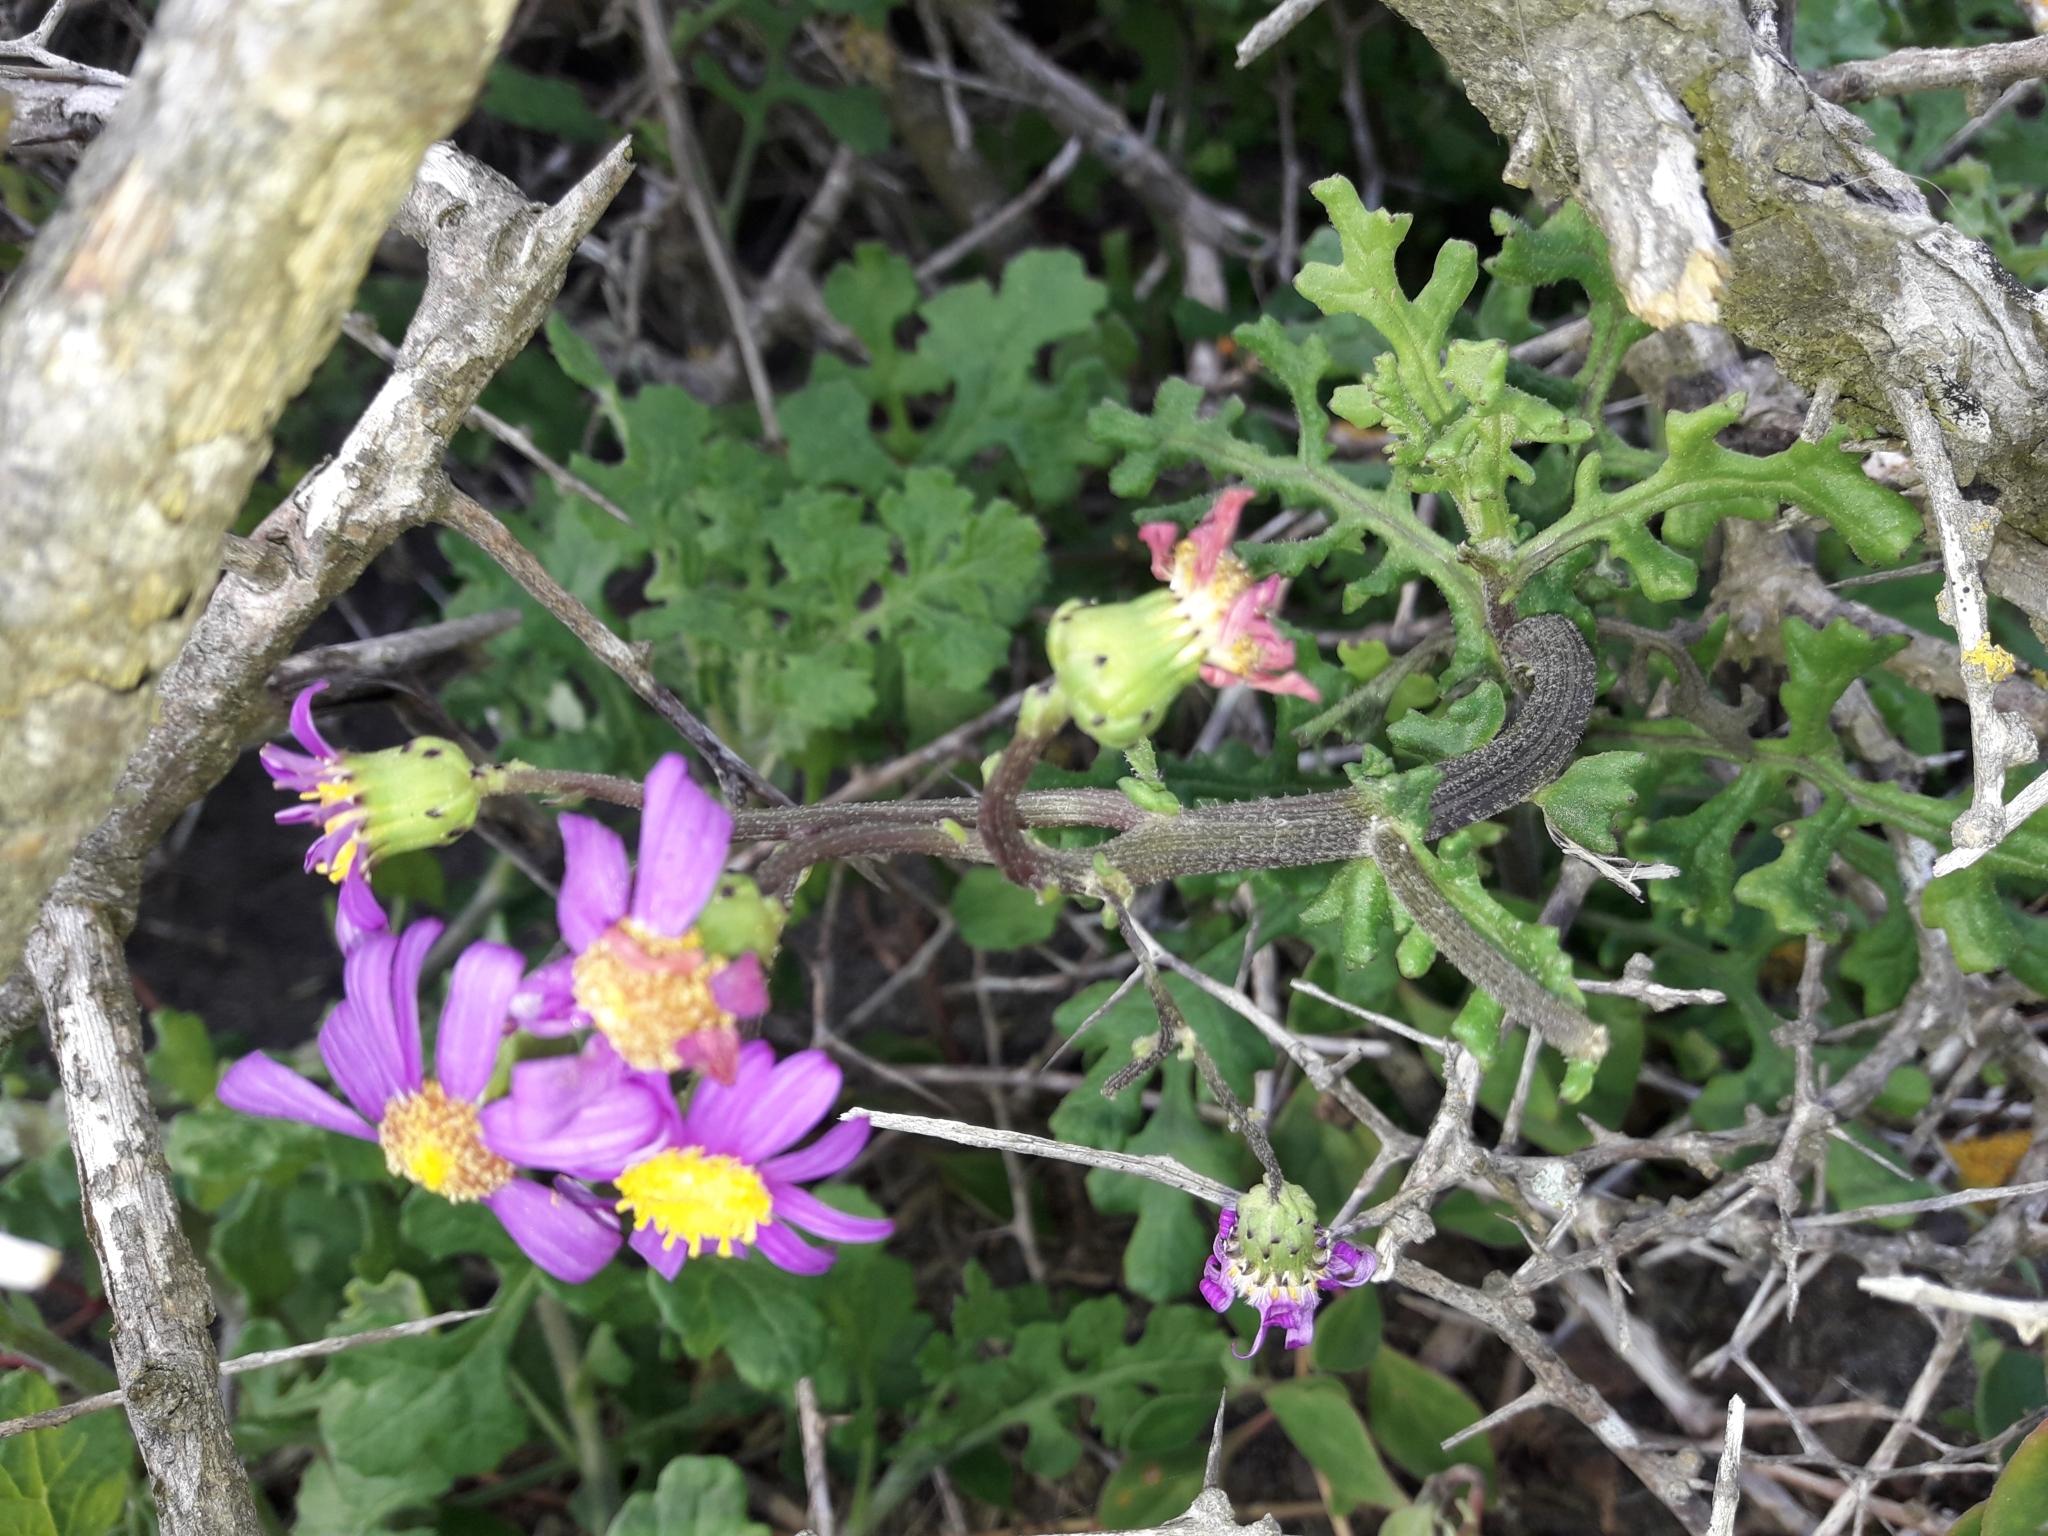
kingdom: Plantae
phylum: Tracheophyta
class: Magnoliopsida
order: Asterales
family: Asteraceae
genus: Senecio
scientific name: Senecio elegans
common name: Purple groundsel
